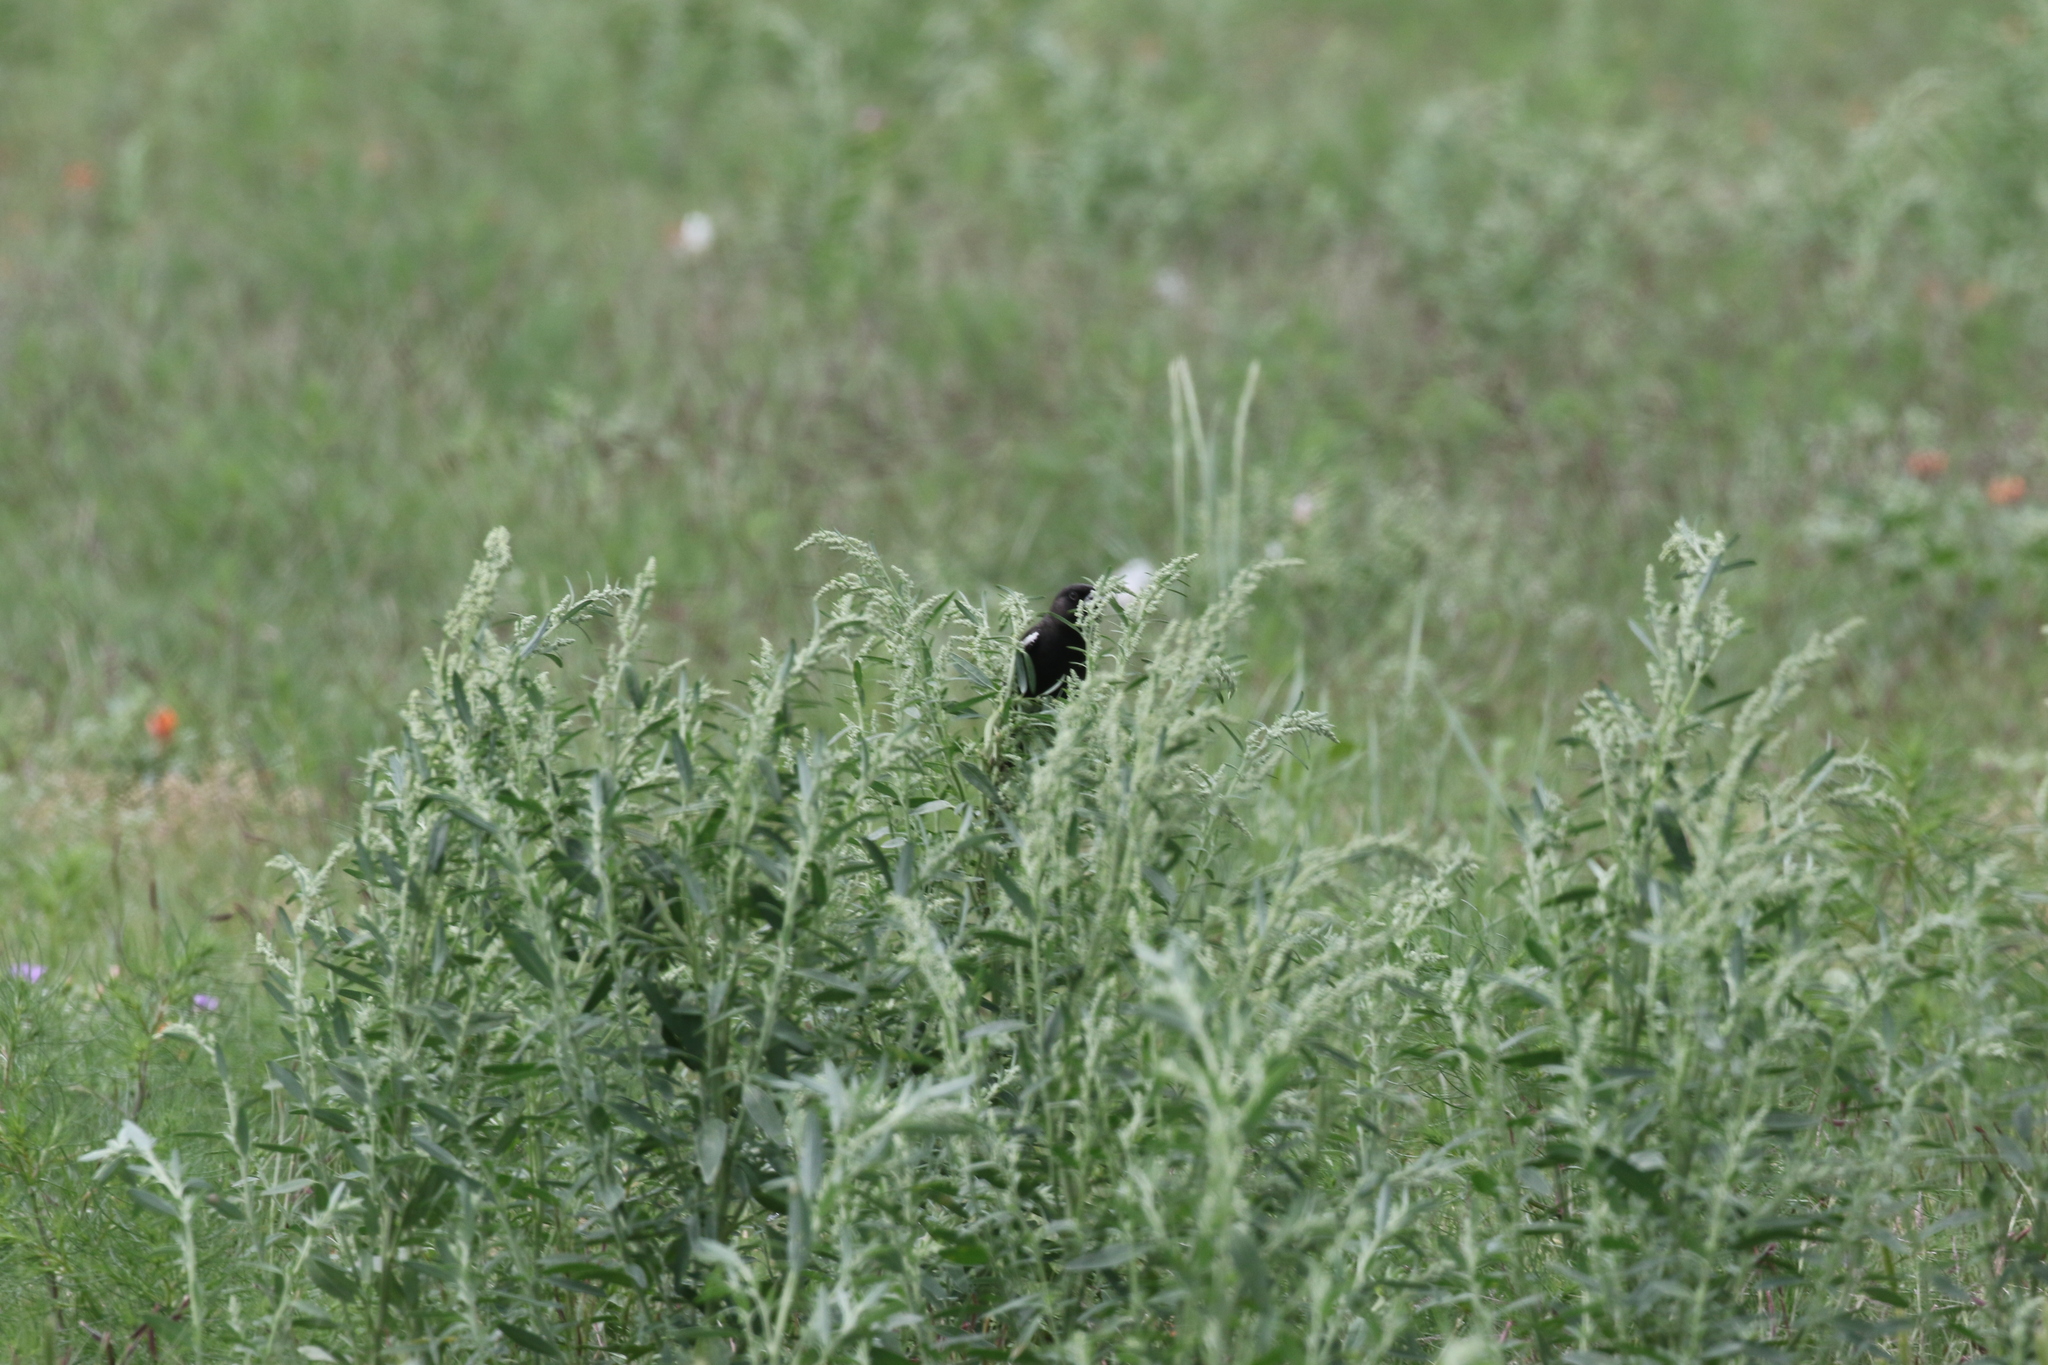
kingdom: Animalia
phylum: Chordata
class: Aves
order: Passeriformes
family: Passerellidae
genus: Calamospiza
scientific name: Calamospiza melanocorys
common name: Lark bunting
